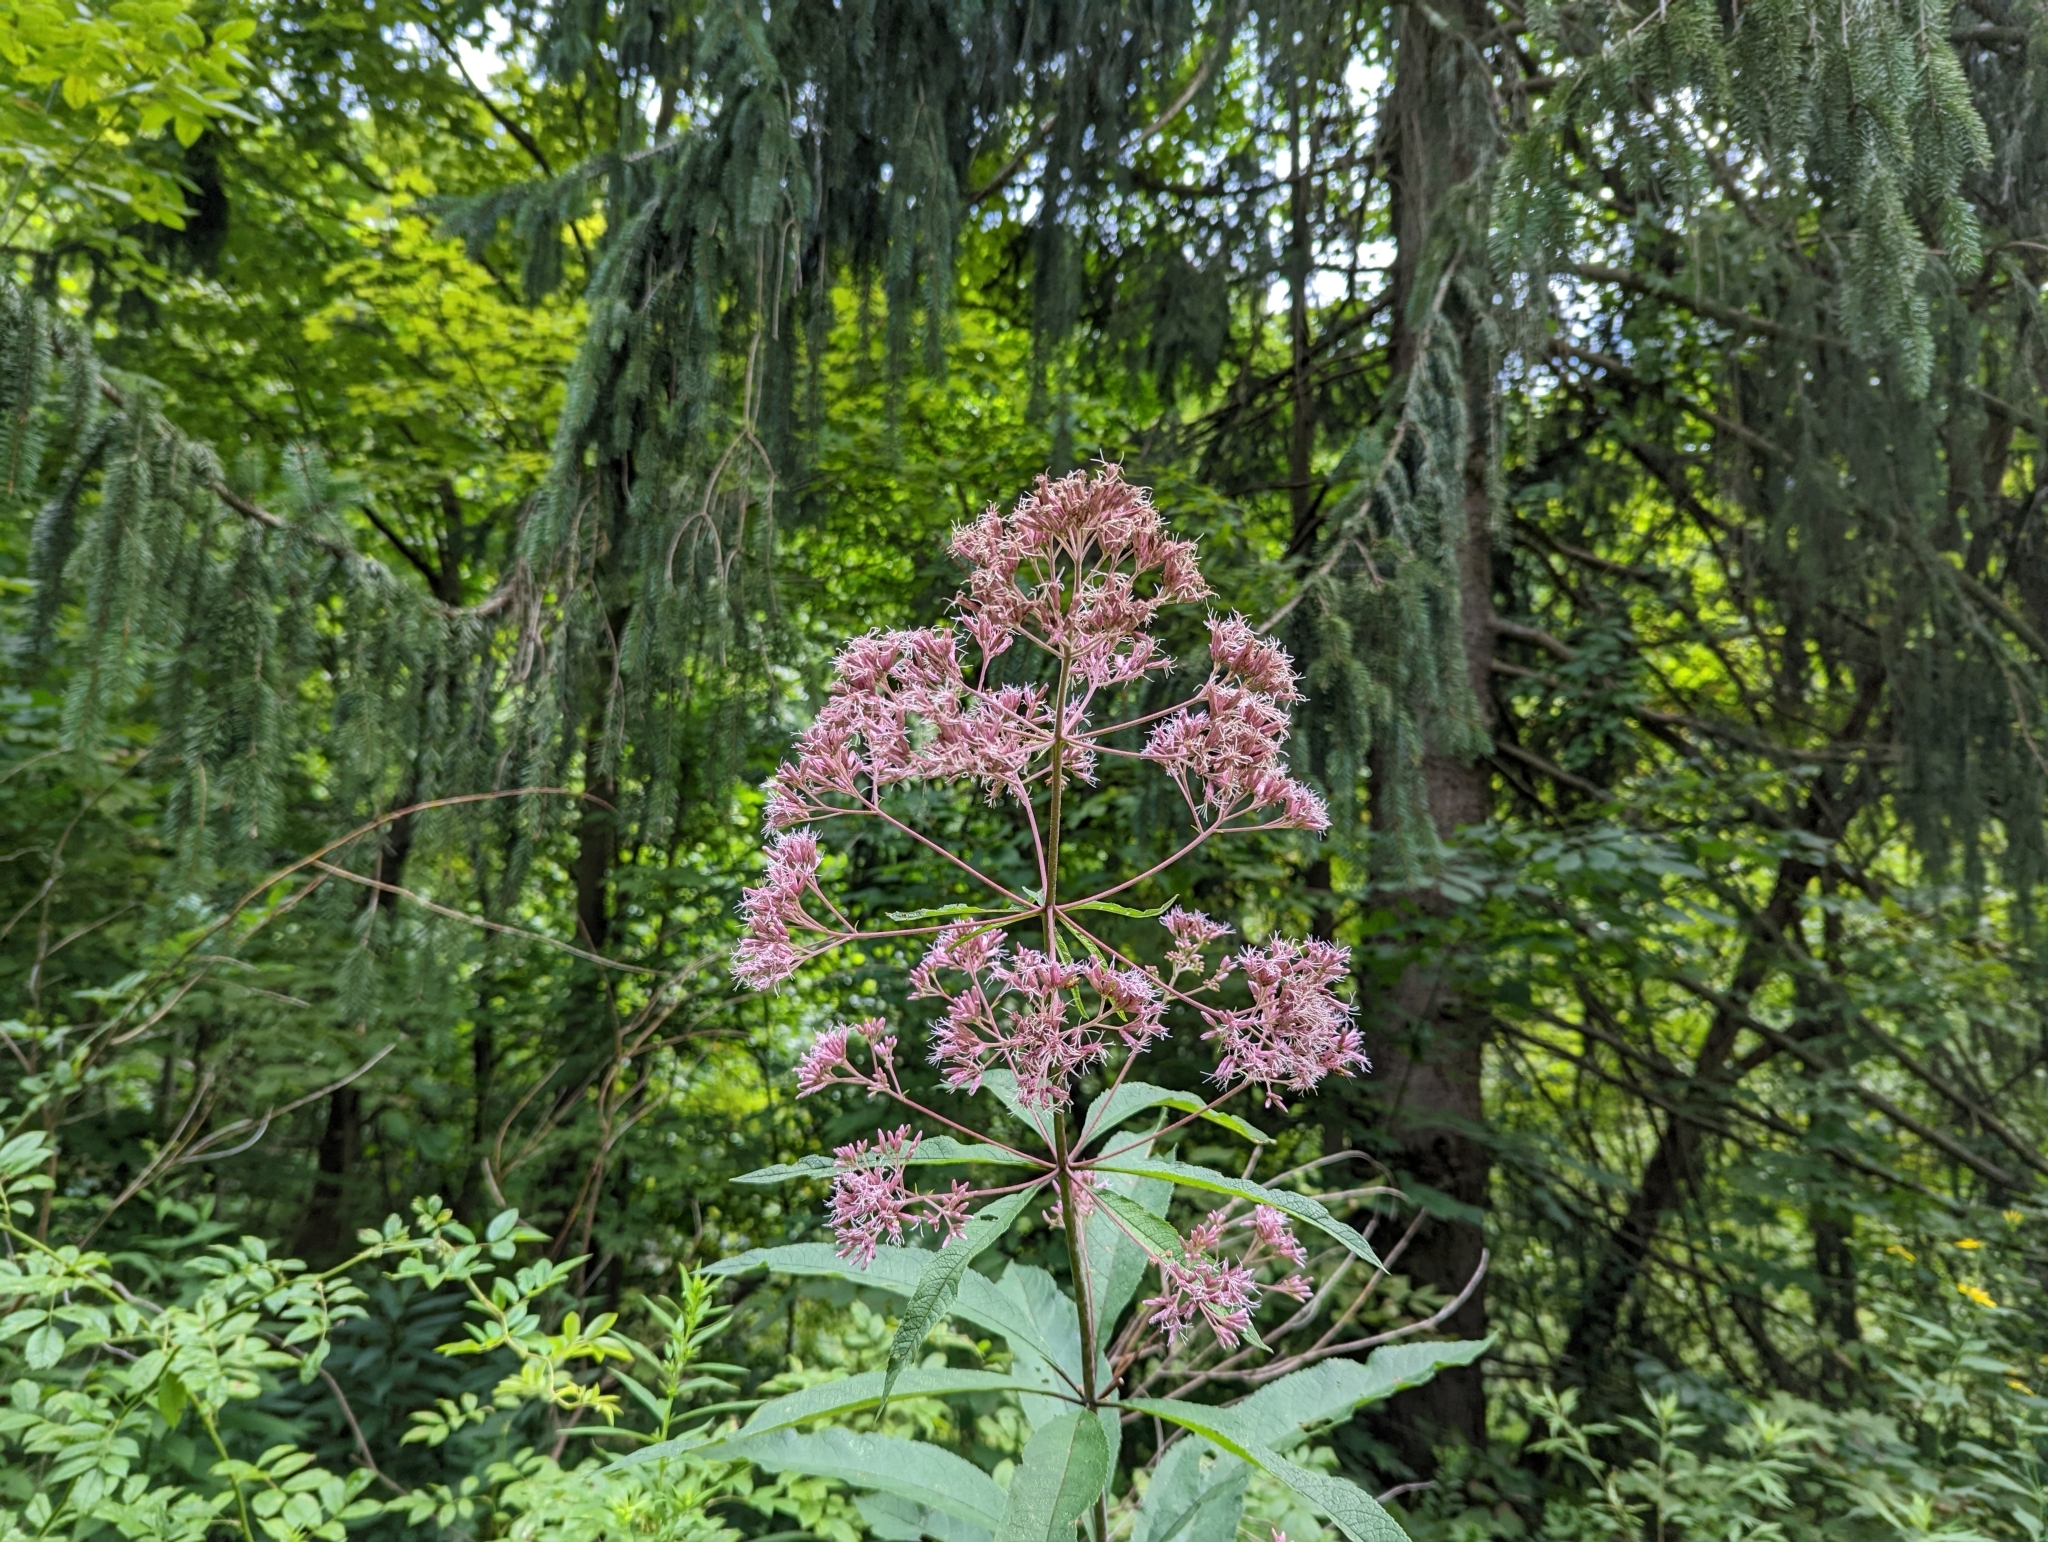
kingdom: Plantae
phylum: Tracheophyta
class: Magnoliopsida
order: Asterales
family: Asteraceae
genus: Eutrochium
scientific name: Eutrochium fistulosum
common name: Trumpetweed
